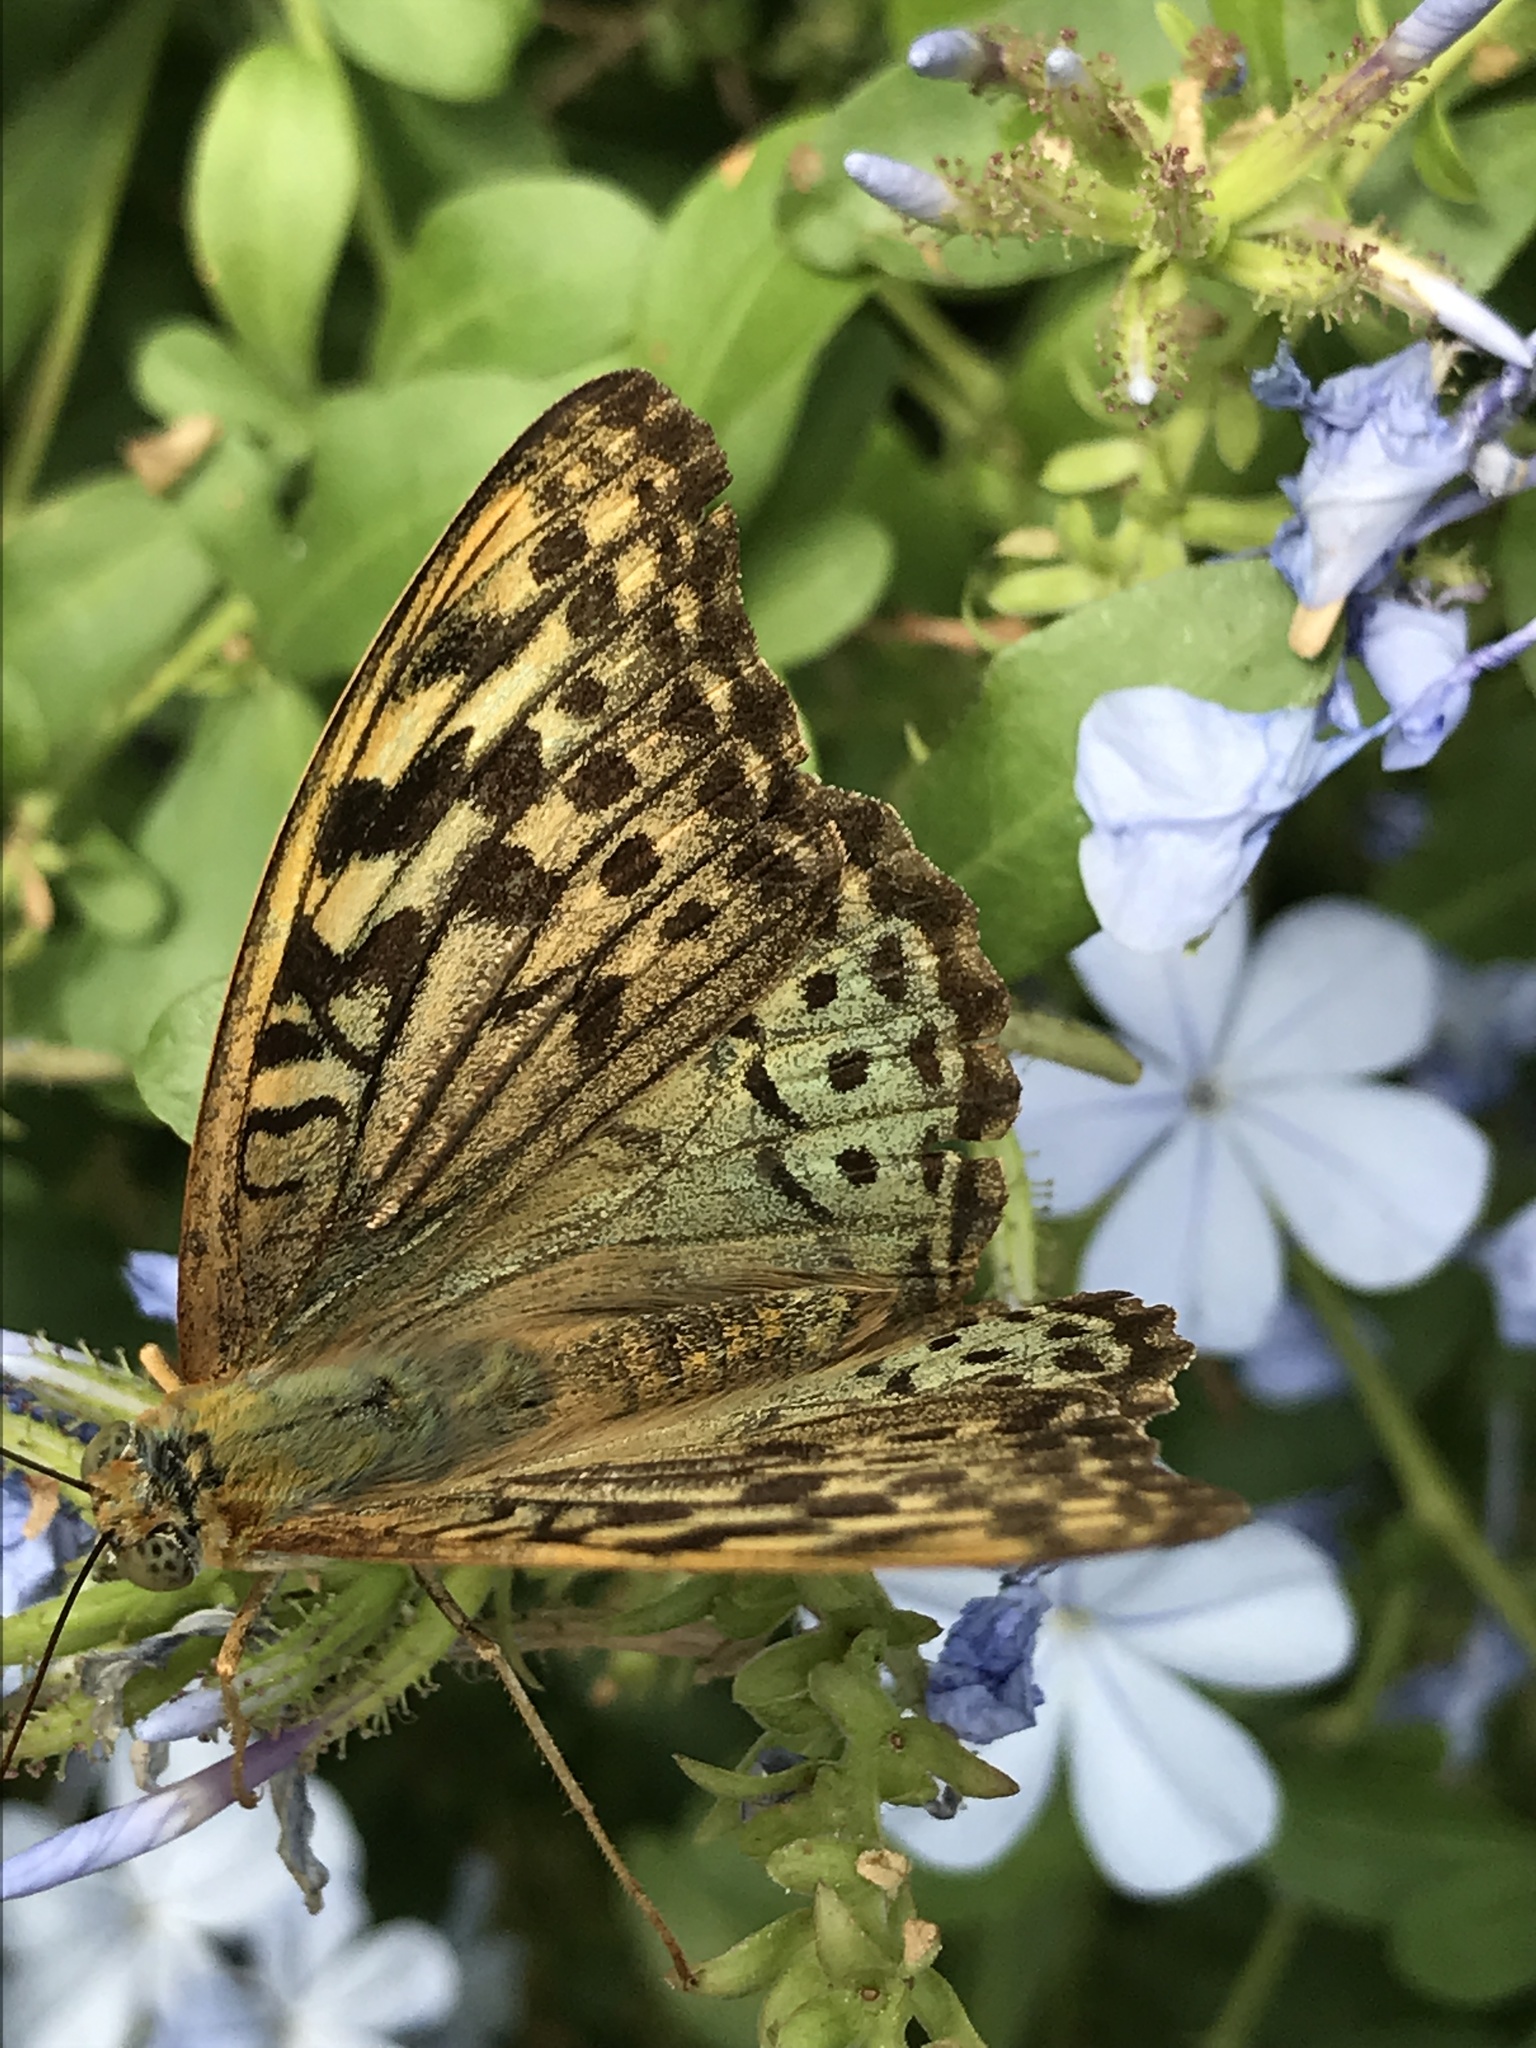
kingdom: Animalia
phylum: Arthropoda
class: Insecta
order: Lepidoptera
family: Nymphalidae
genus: Damora
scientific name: Damora pandora
